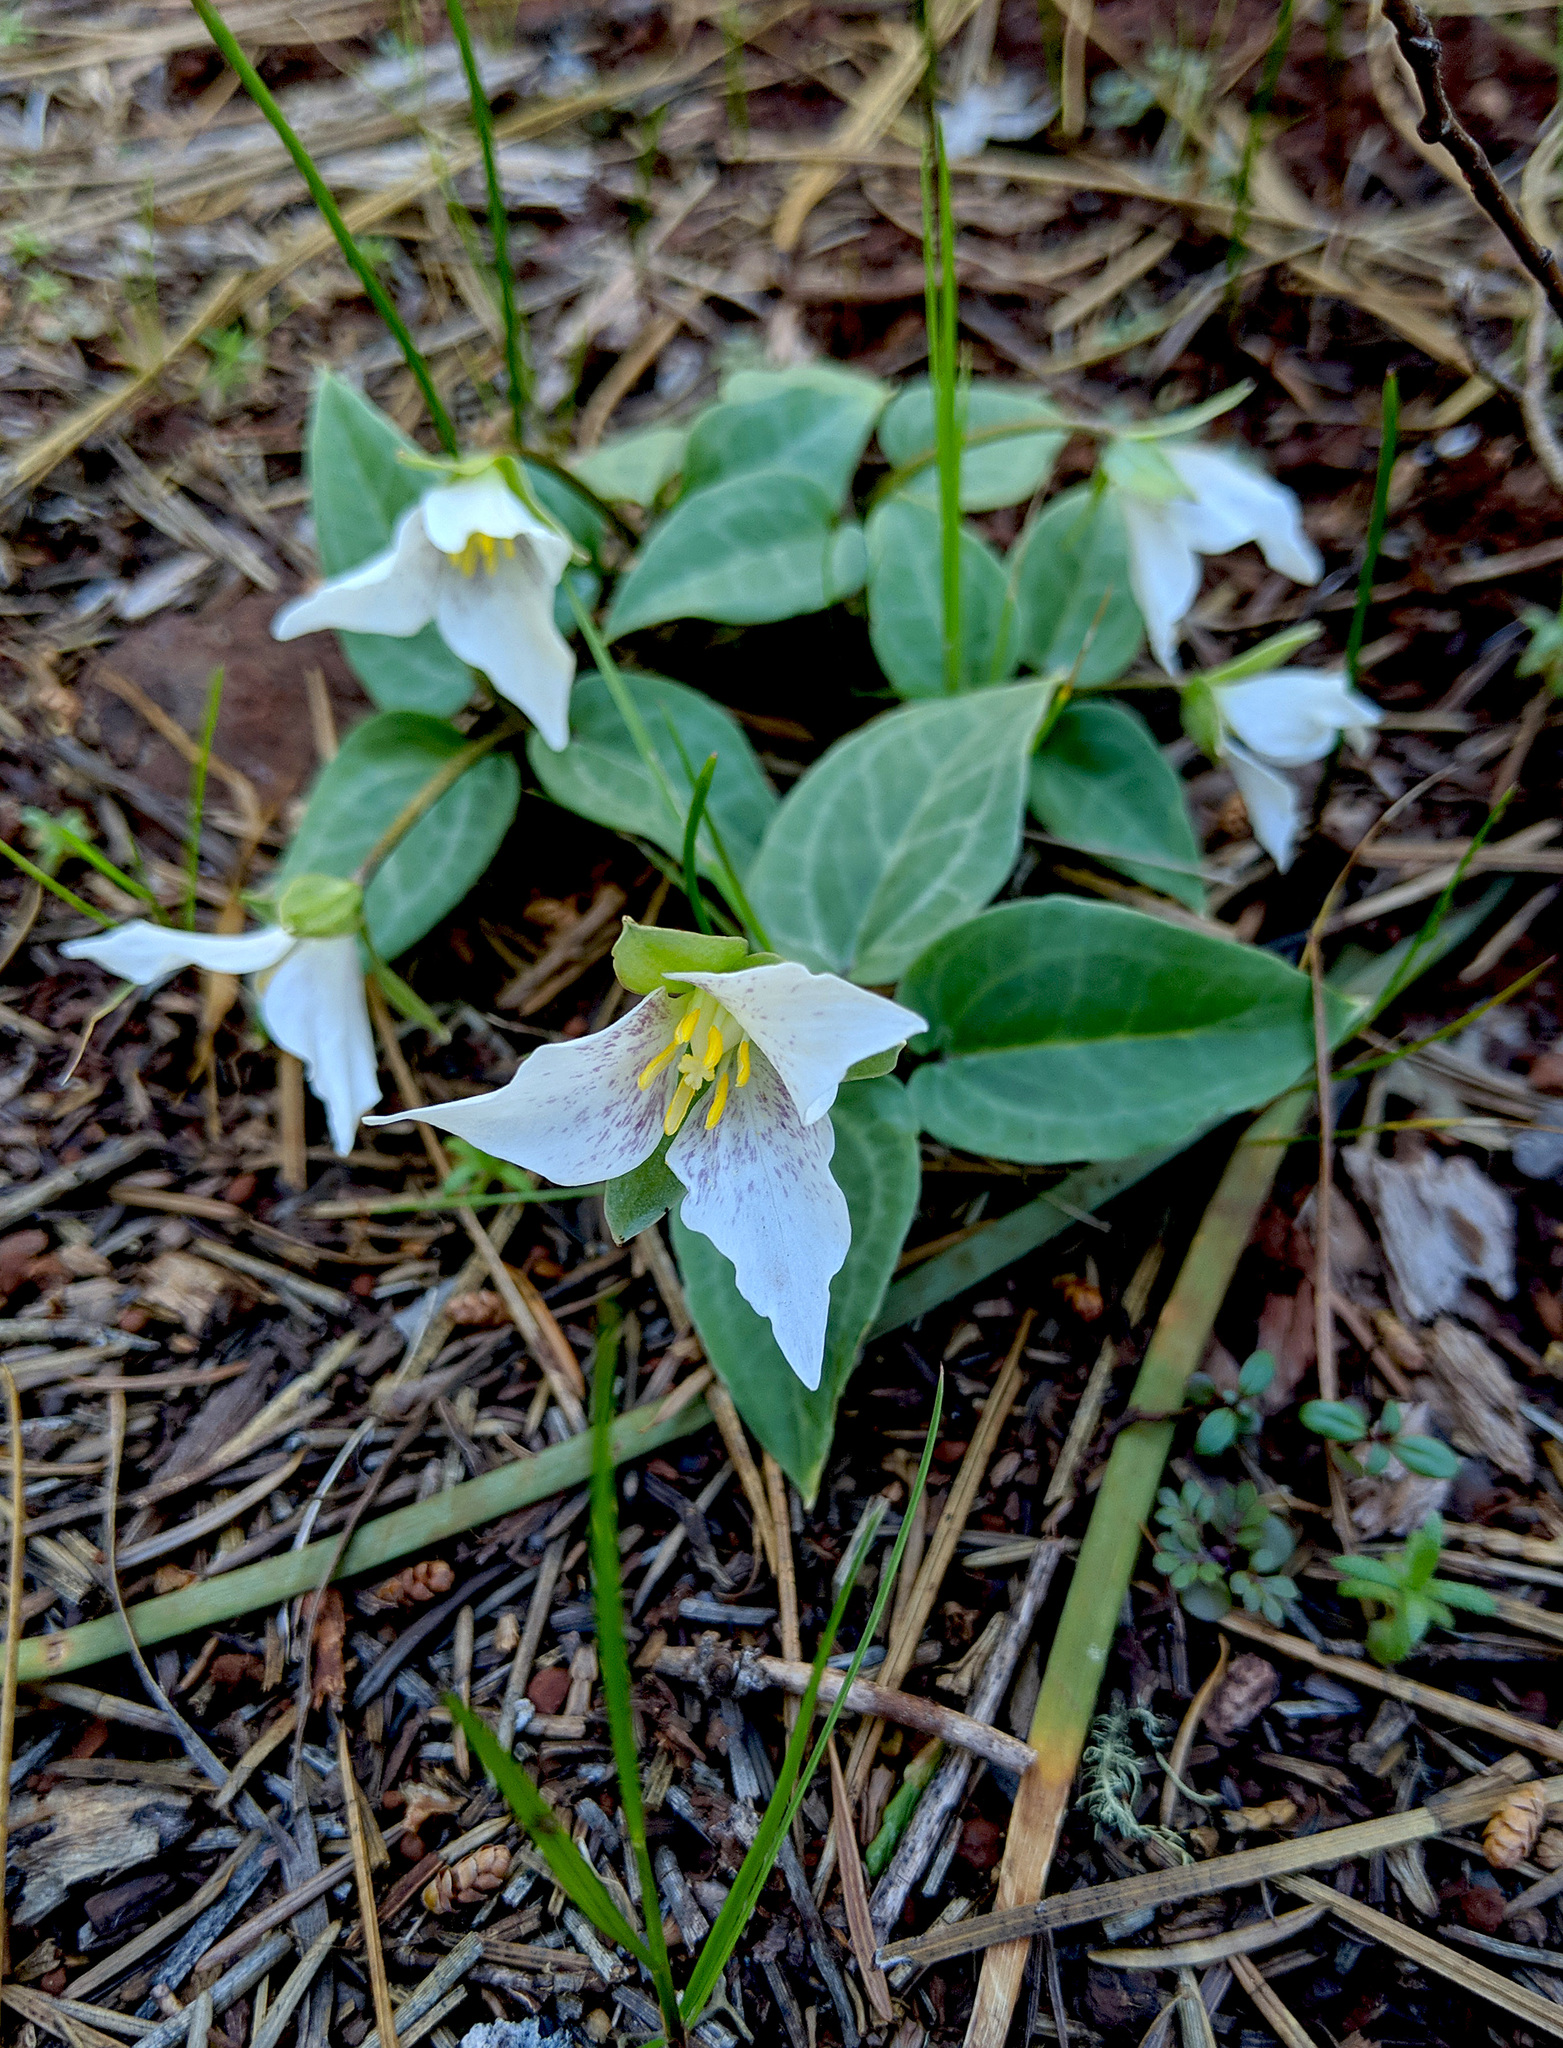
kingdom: Plantae
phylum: Tracheophyta
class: Liliopsida
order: Liliales
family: Melanthiaceae
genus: Pseudotrillium
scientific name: Pseudotrillium rivale
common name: Brook wakerobin
